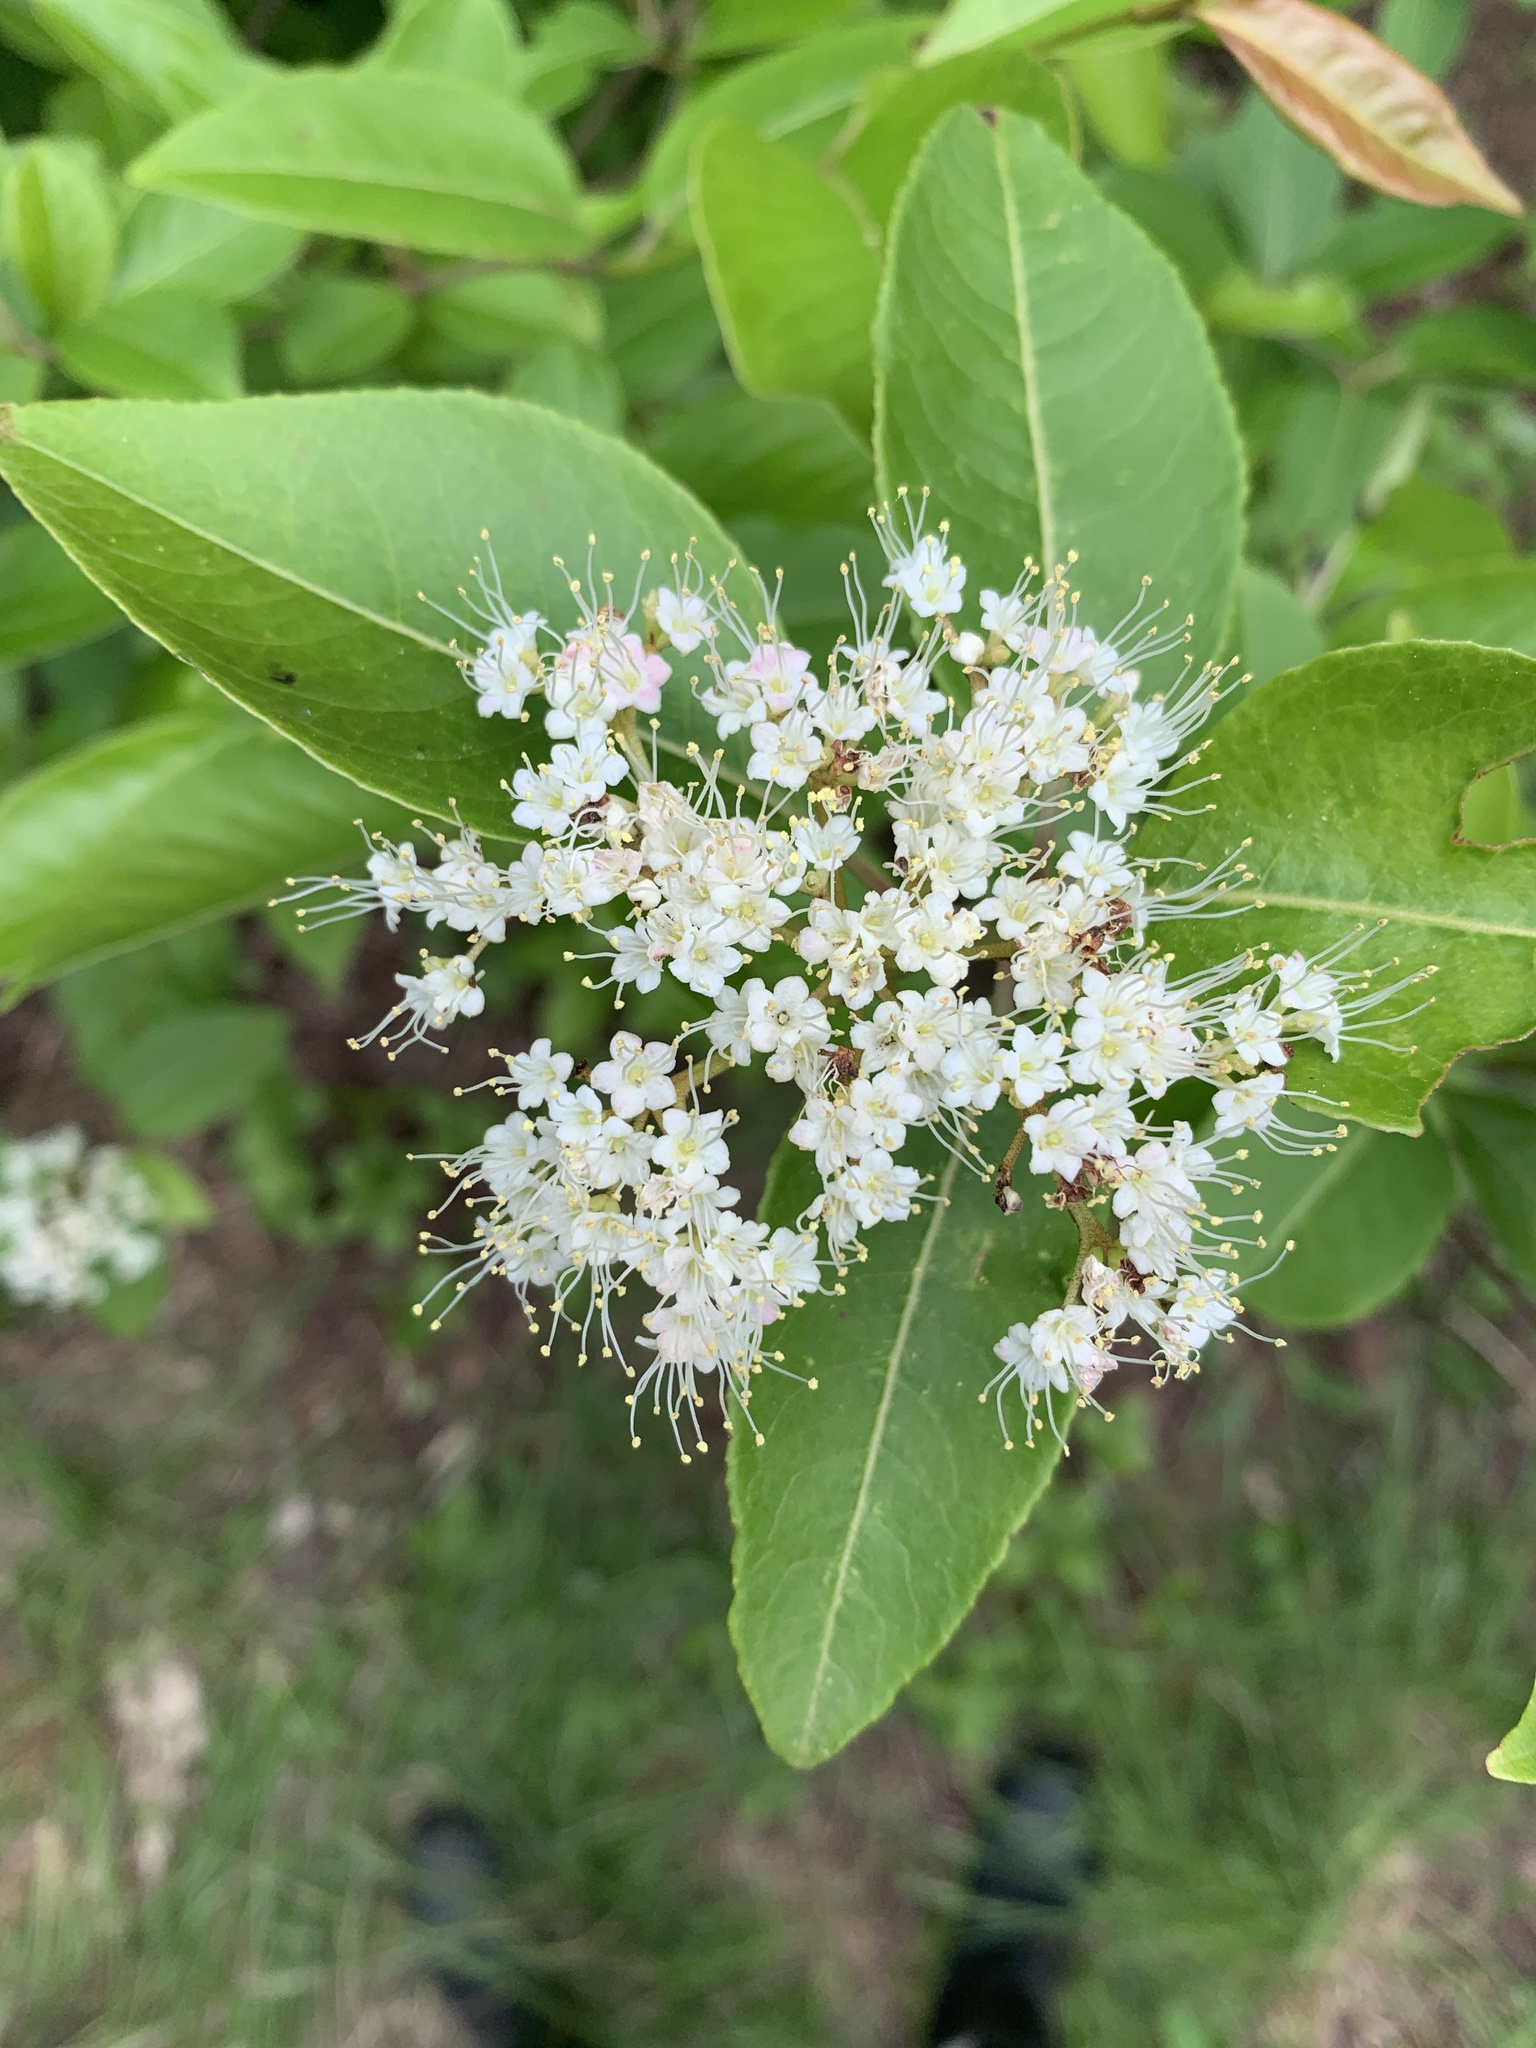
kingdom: Plantae
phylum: Tracheophyta
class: Magnoliopsida
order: Dipsacales
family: Viburnaceae
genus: Viburnum
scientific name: Viburnum cassinoides
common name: Swamp haw
